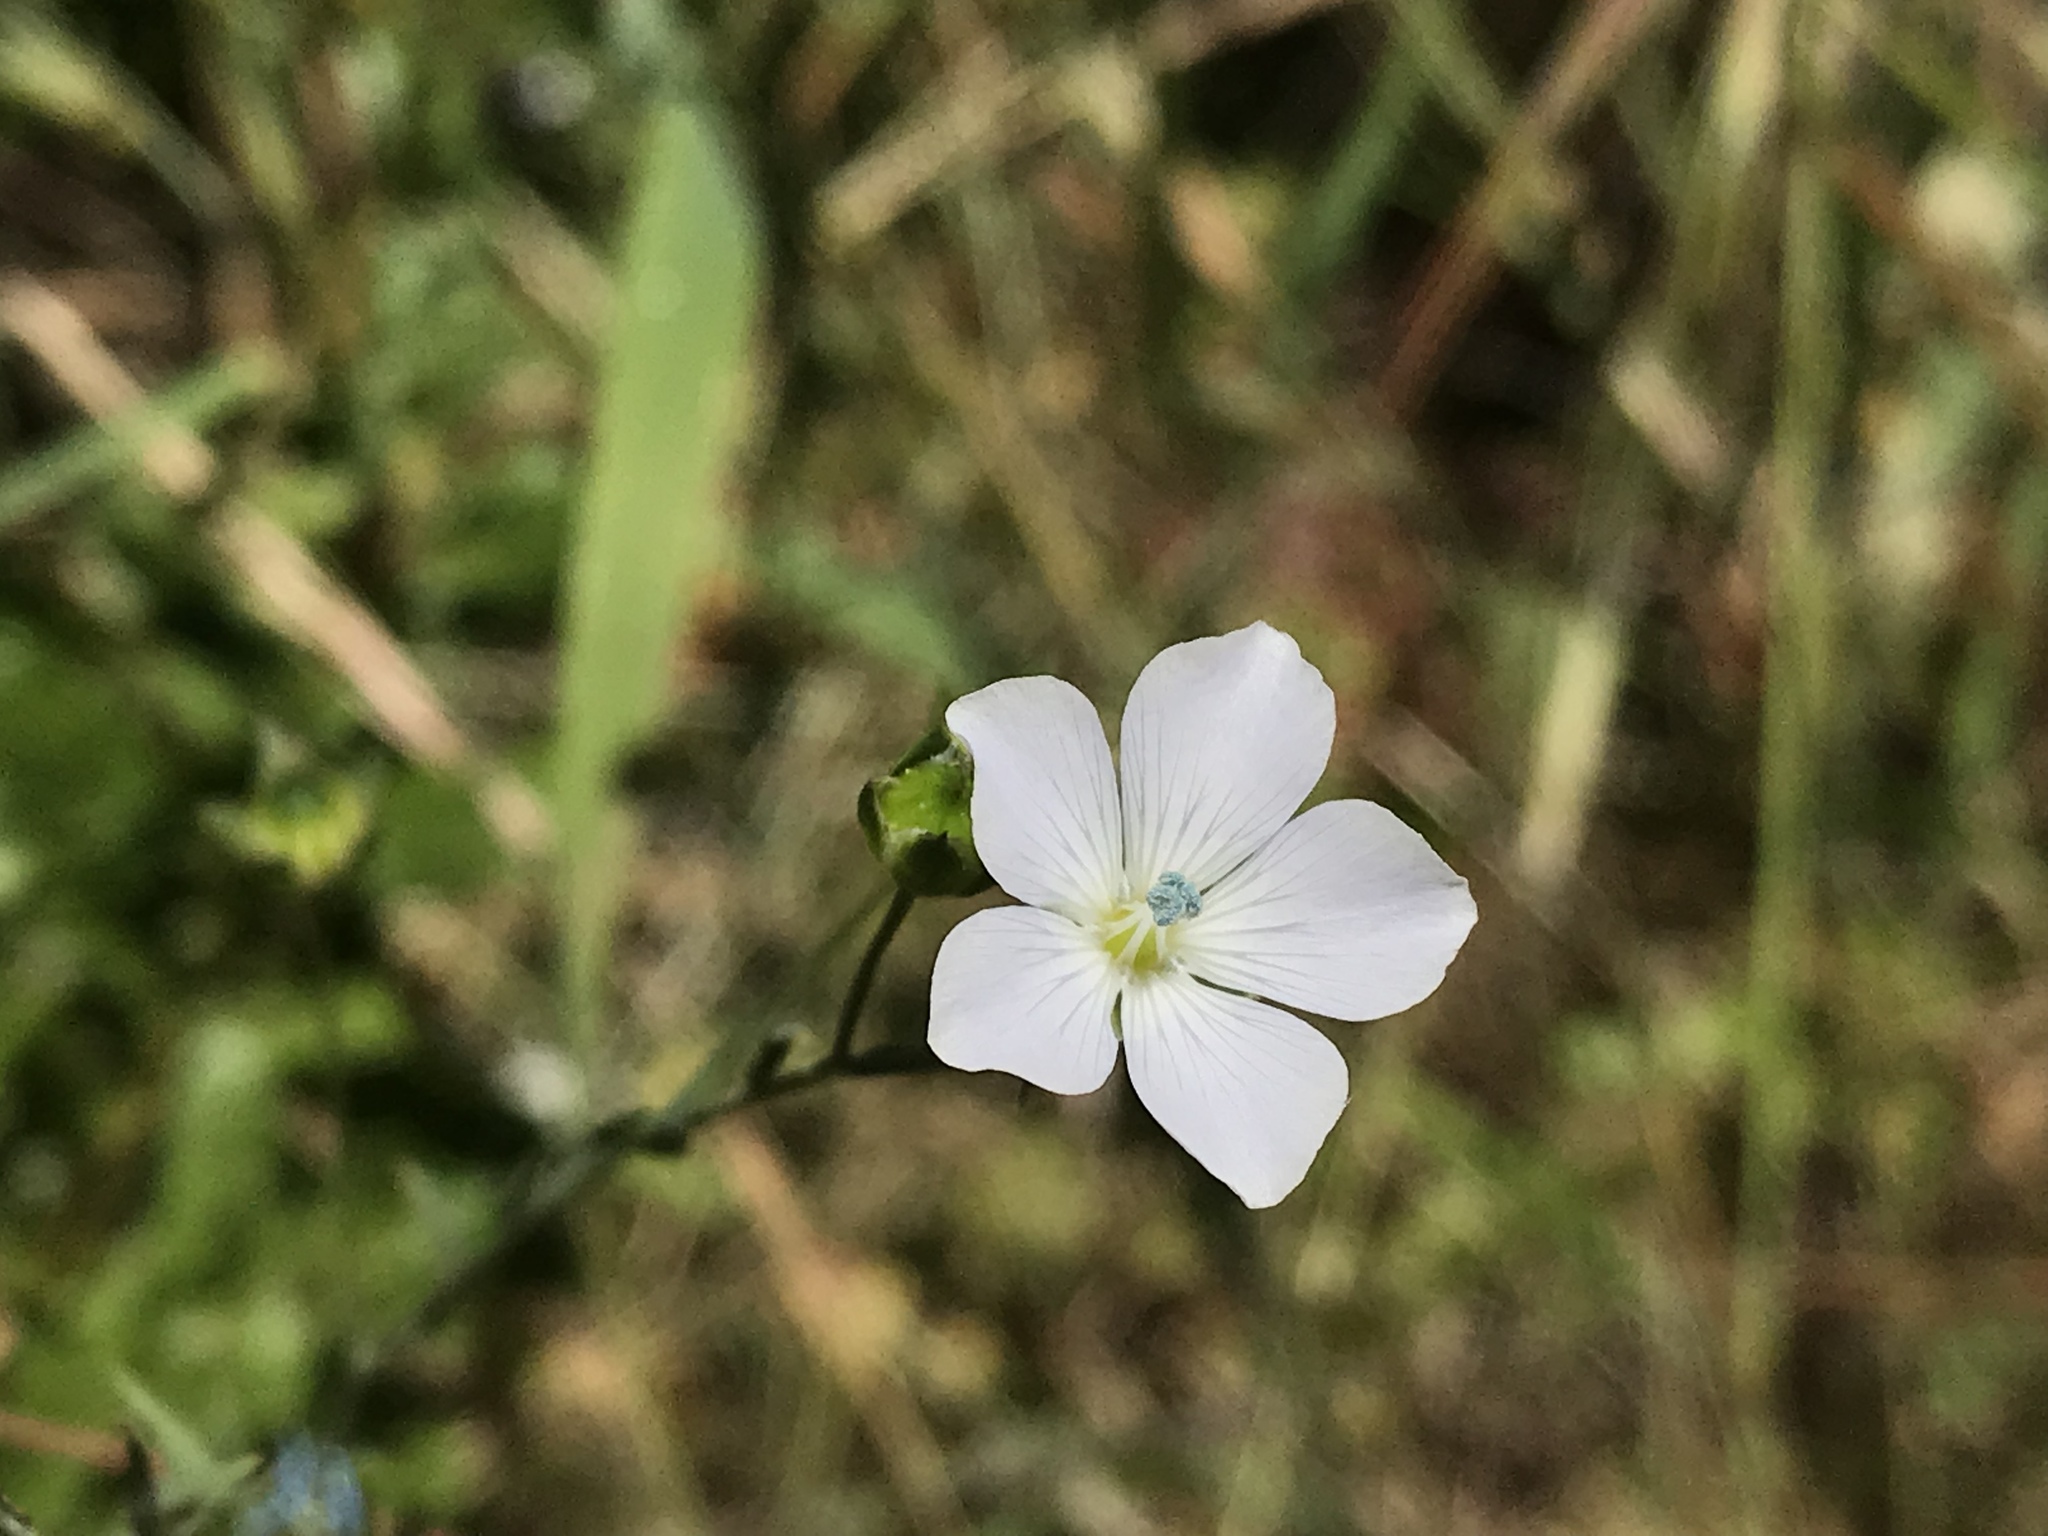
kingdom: Plantae
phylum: Tracheophyta
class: Magnoliopsida
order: Malpighiales
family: Linaceae
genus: Linum
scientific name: Linum bienne
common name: Pale flax
